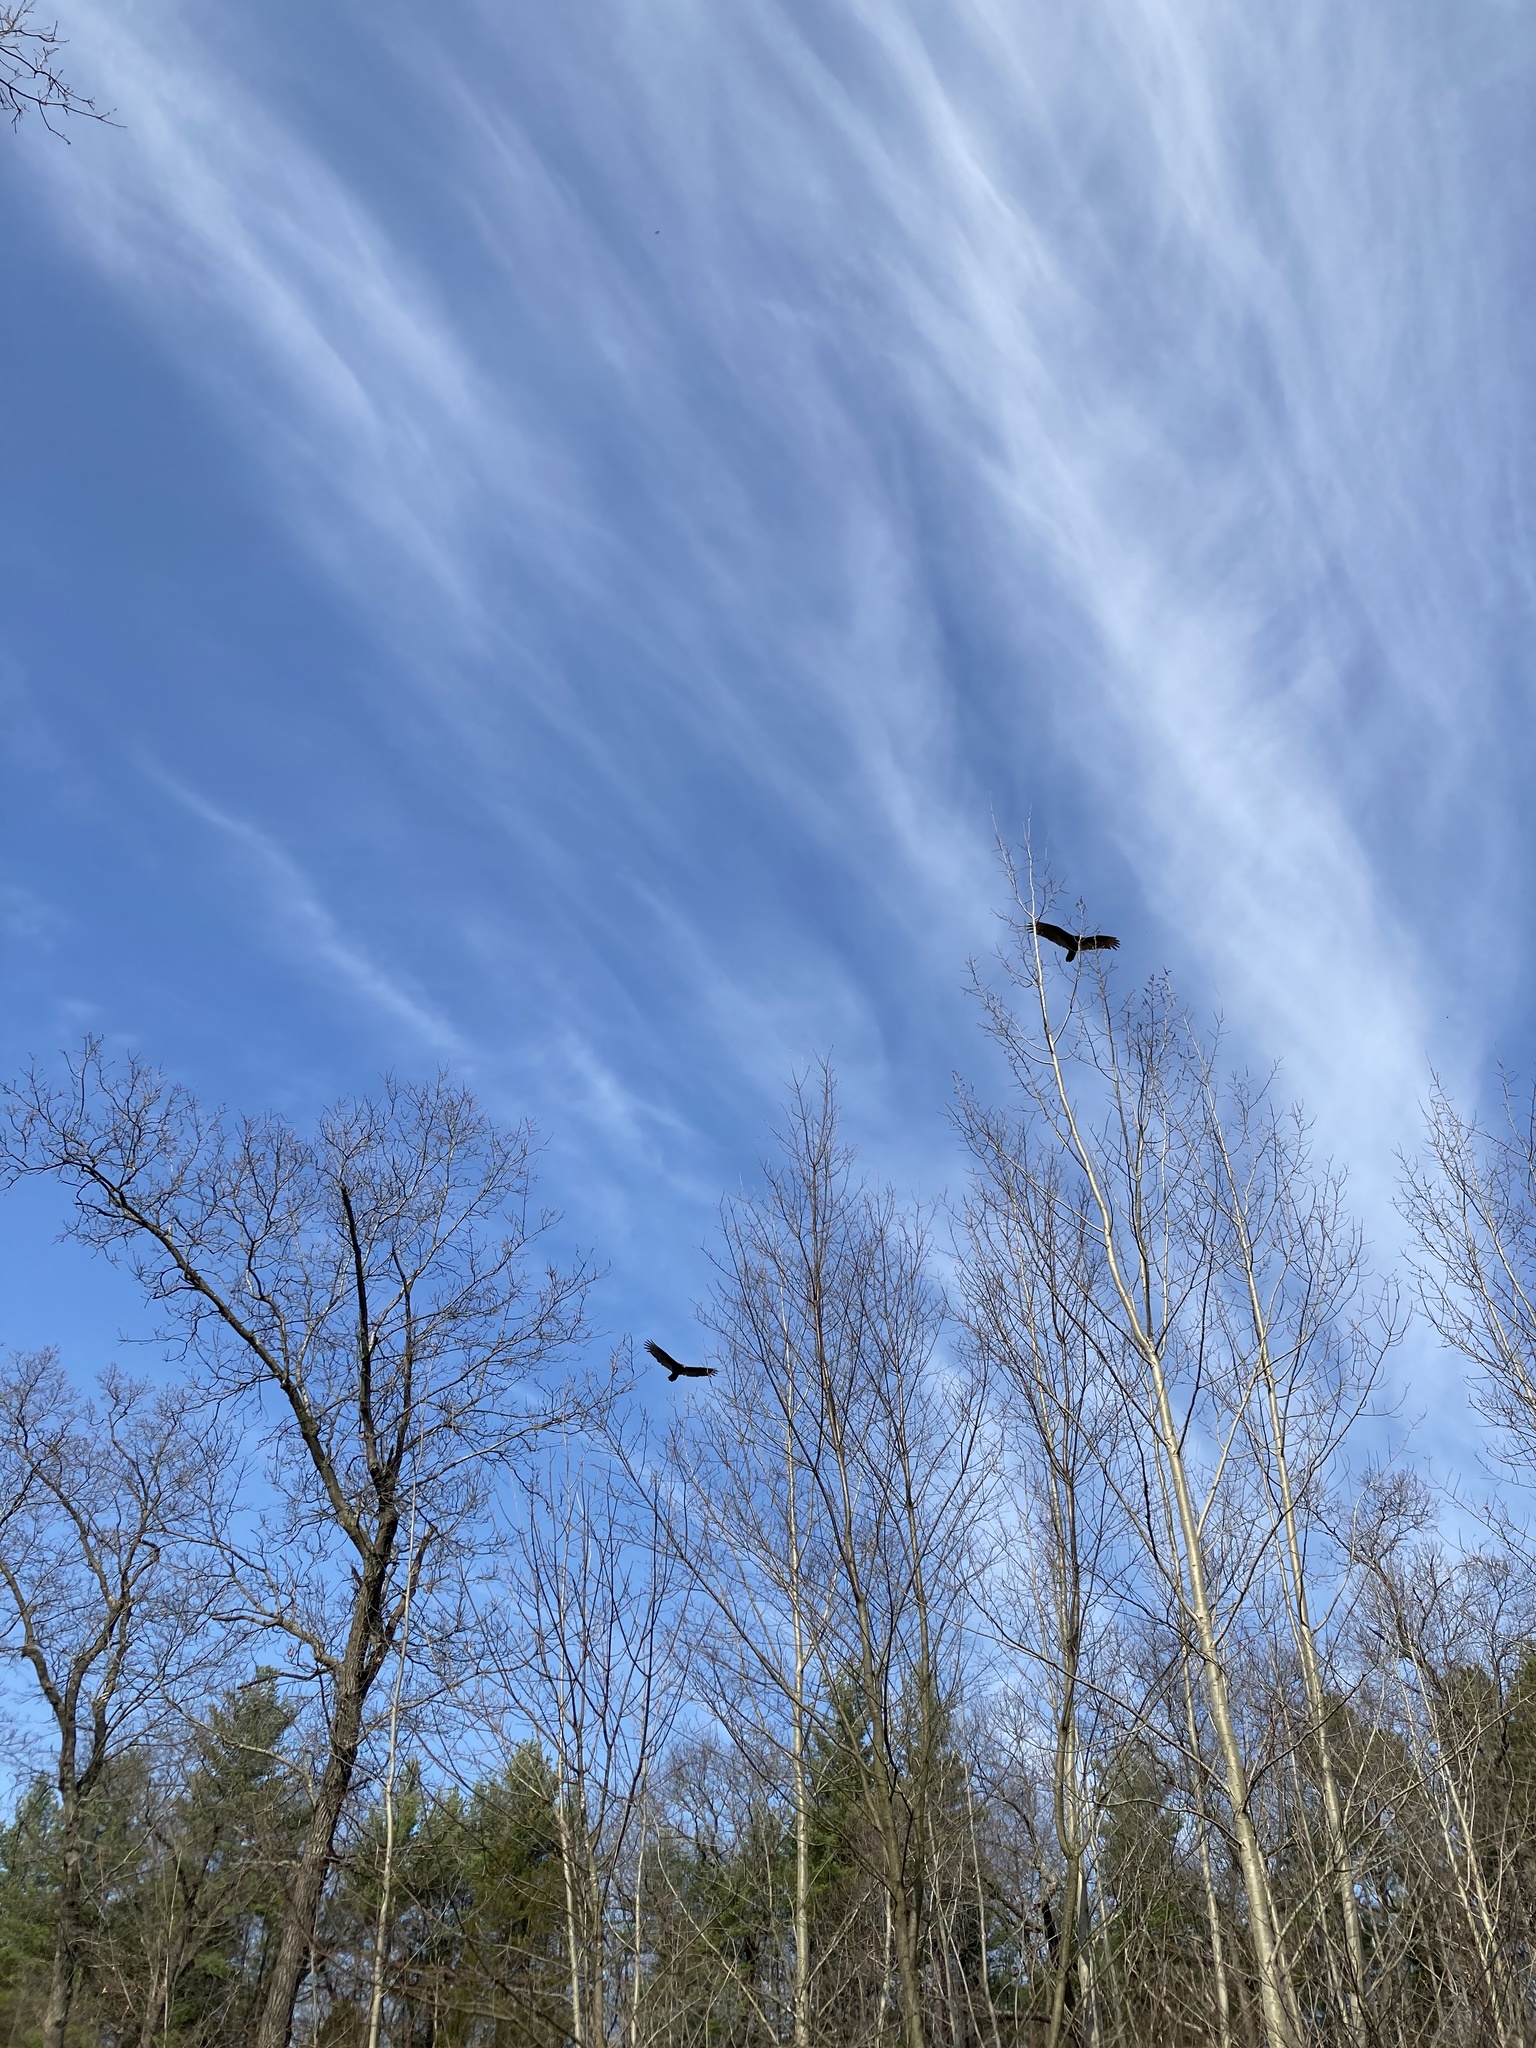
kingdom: Animalia
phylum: Chordata
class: Aves
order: Accipitriformes
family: Cathartidae
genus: Cathartes
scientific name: Cathartes aura
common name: Turkey vulture
